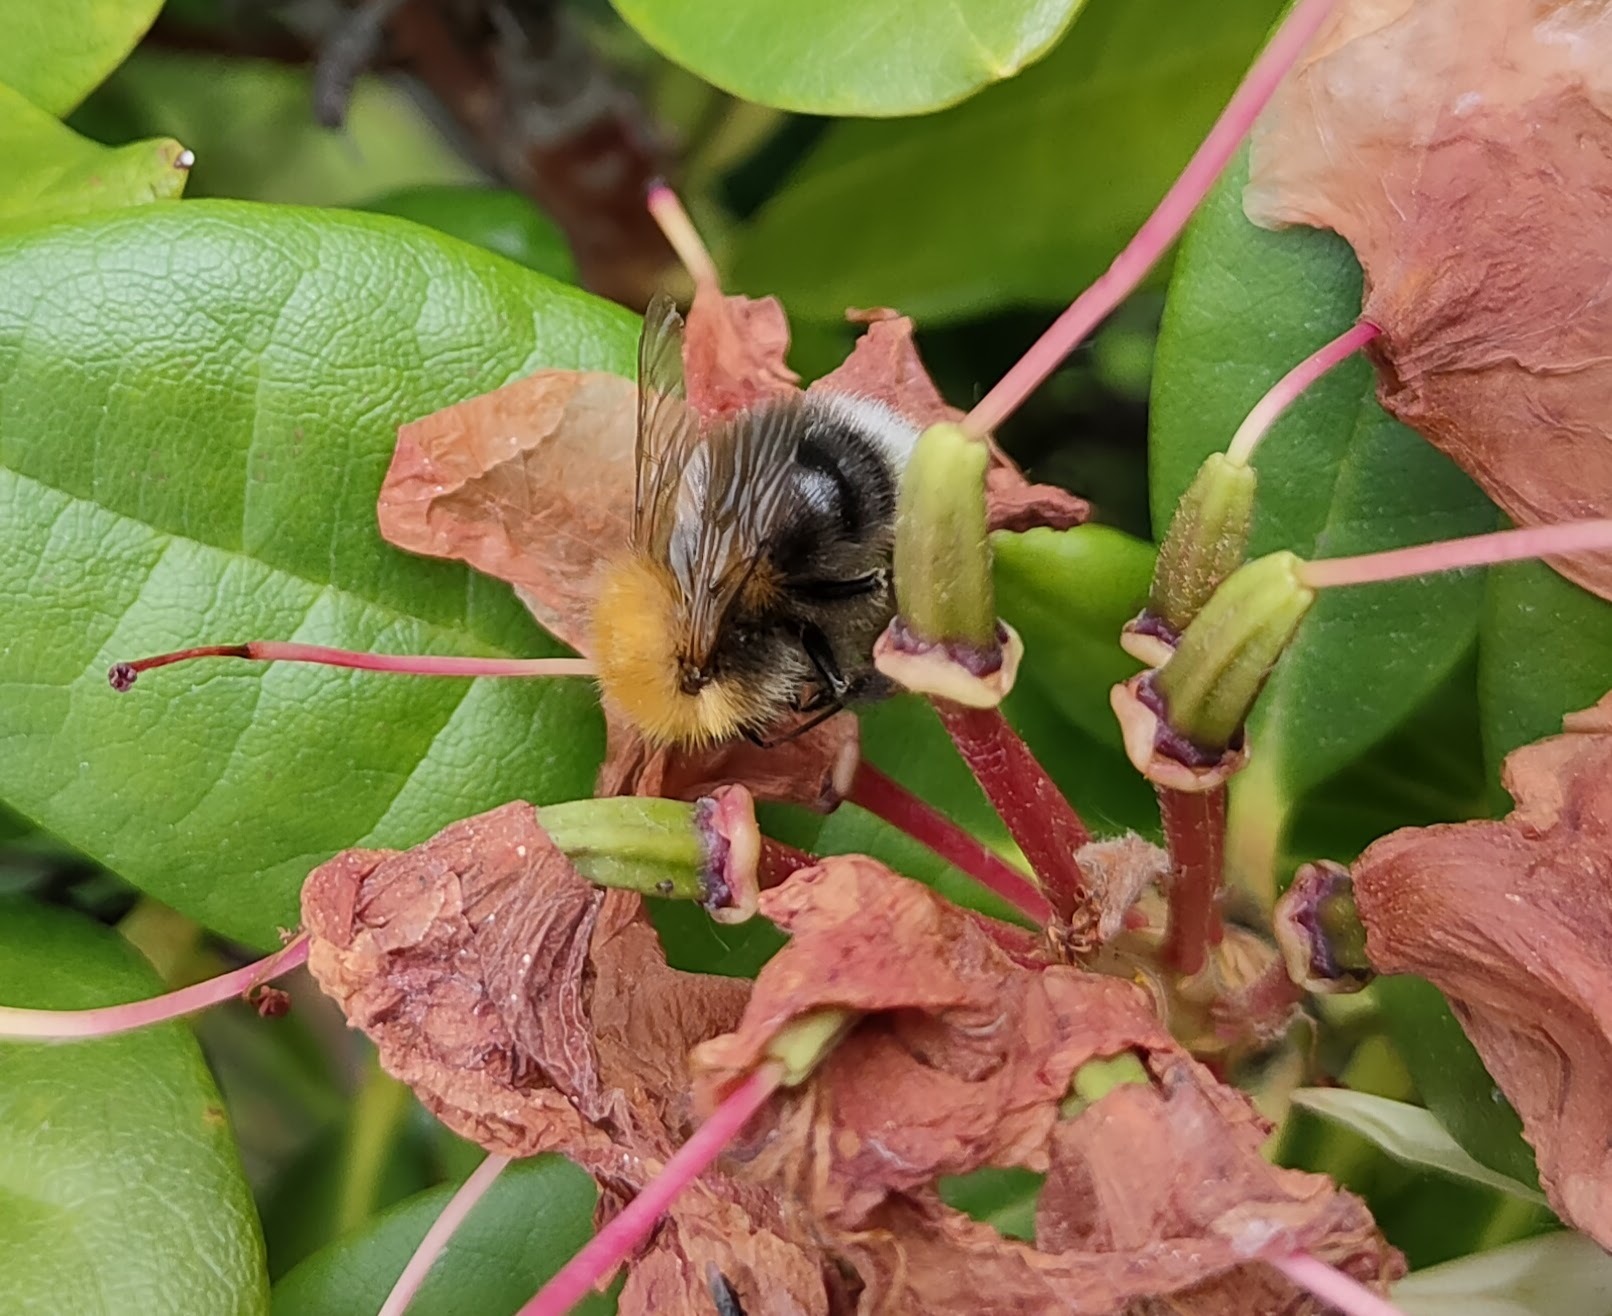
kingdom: Animalia
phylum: Arthropoda
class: Insecta
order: Hymenoptera
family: Apidae
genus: Bombus
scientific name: Bombus hypnorum
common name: New garden bumblebee
